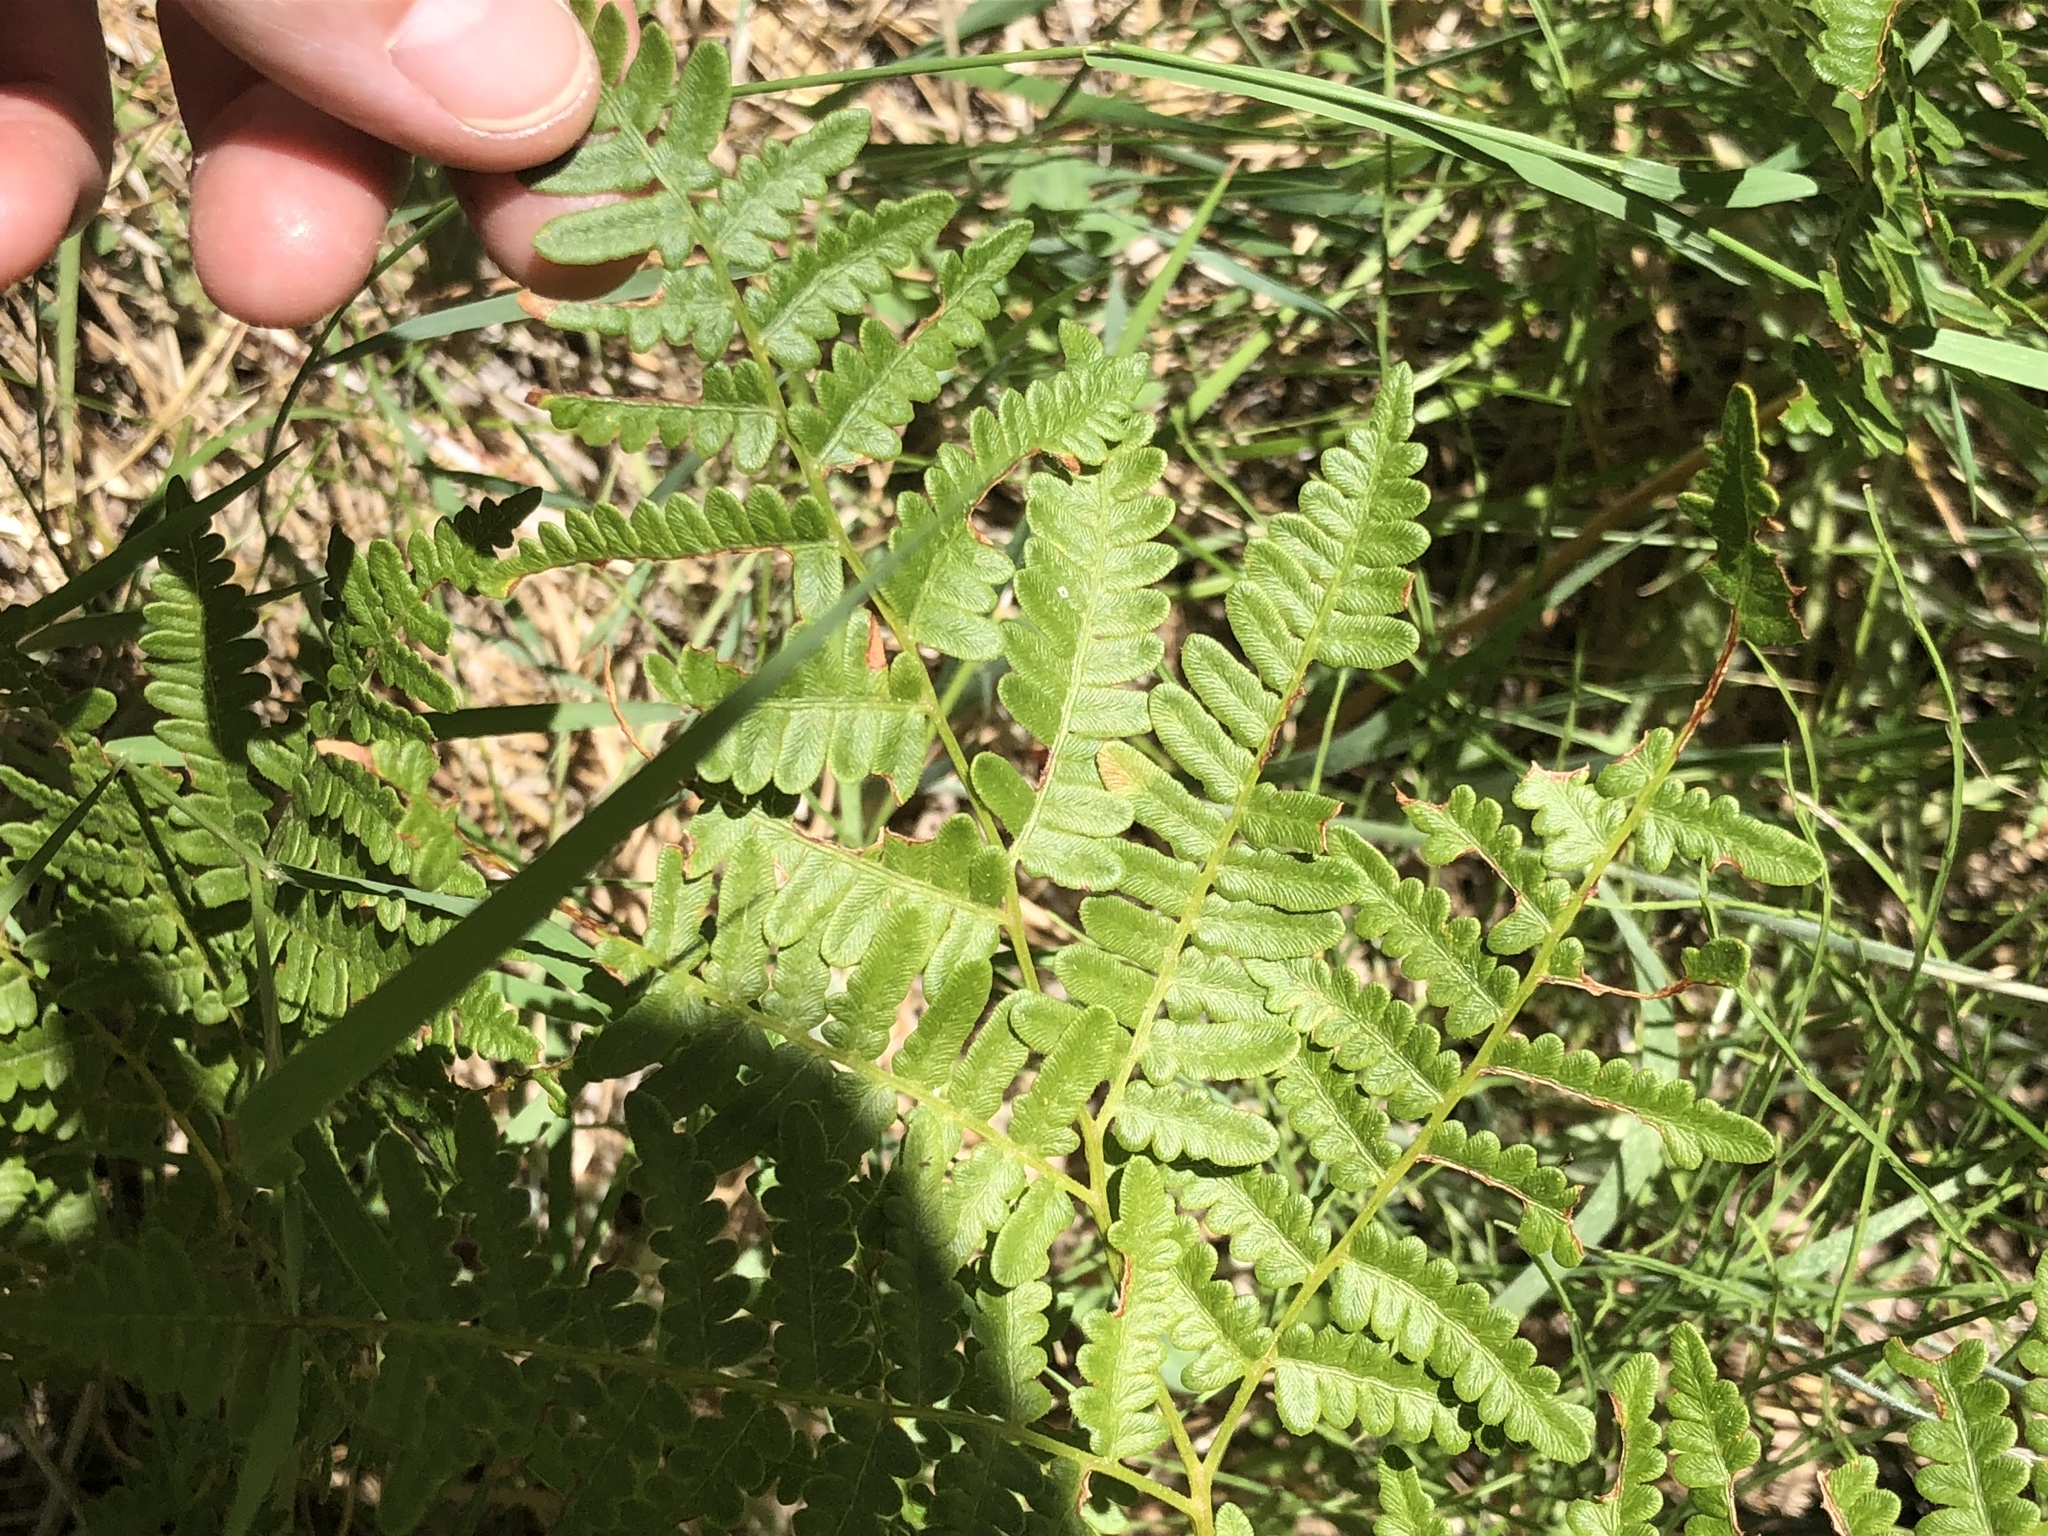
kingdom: Plantae
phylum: Tracheophyta
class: Polypodiopsida
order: Polypodiales
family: Dennstaedtiaceae
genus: Pteridium
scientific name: Pteridium aquilinum
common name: Bracken
